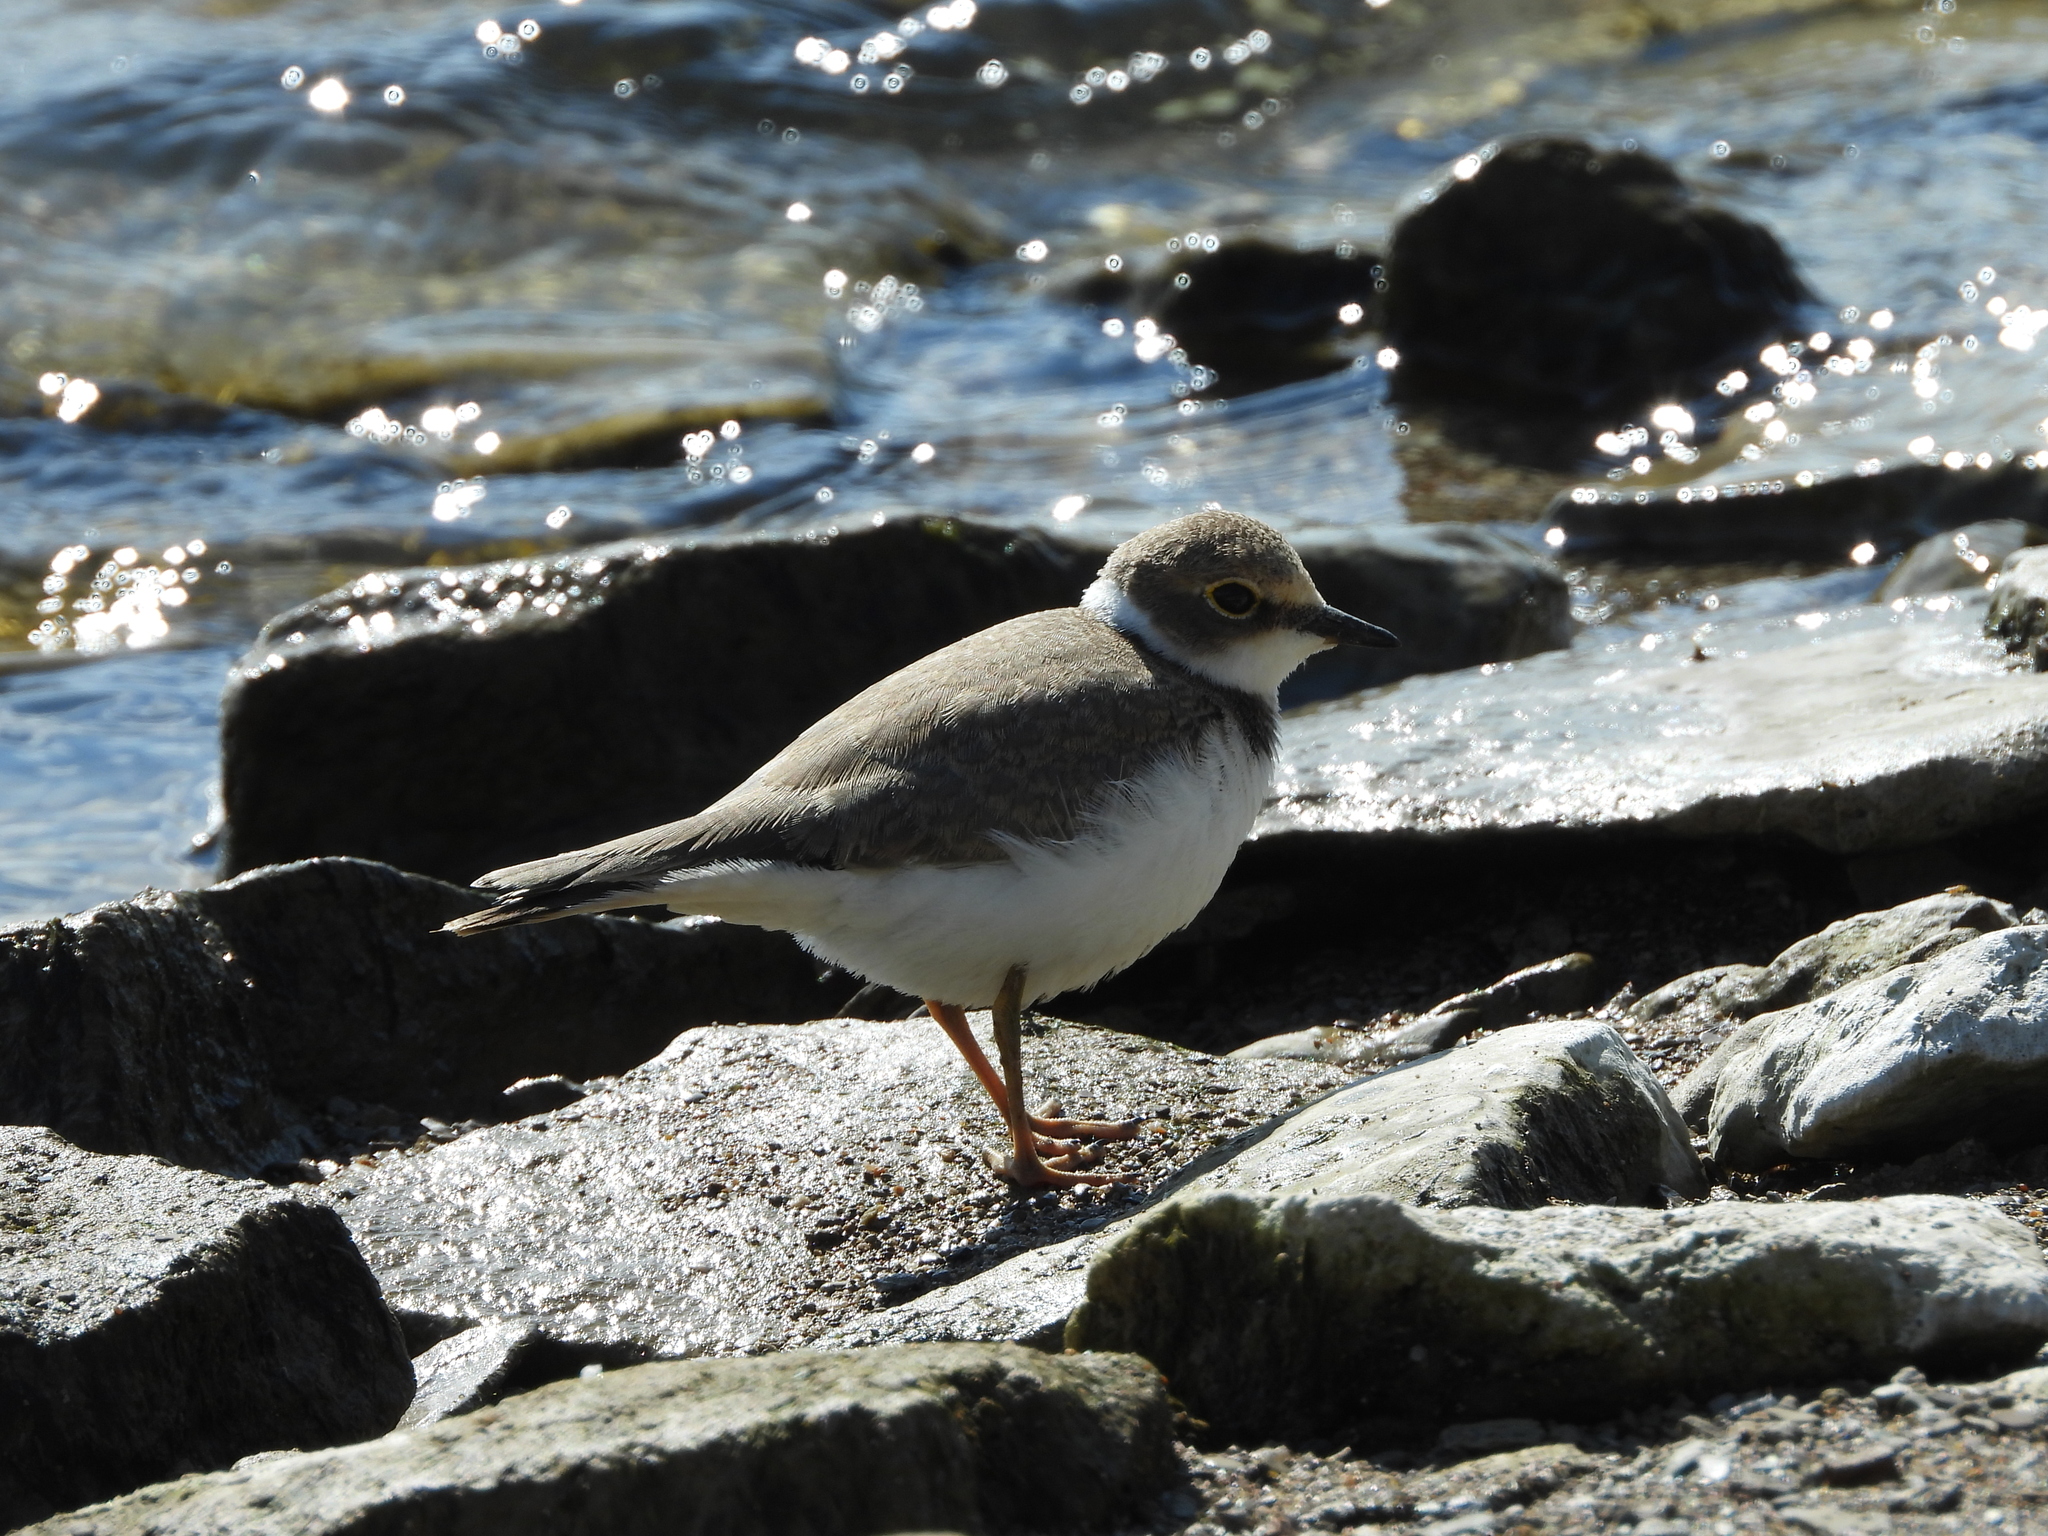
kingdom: Animalia
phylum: Chordata
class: Aves
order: Charadriiformes
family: Charadriidae
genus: Charadrius
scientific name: Charadrius dubius
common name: Little ringed plover
